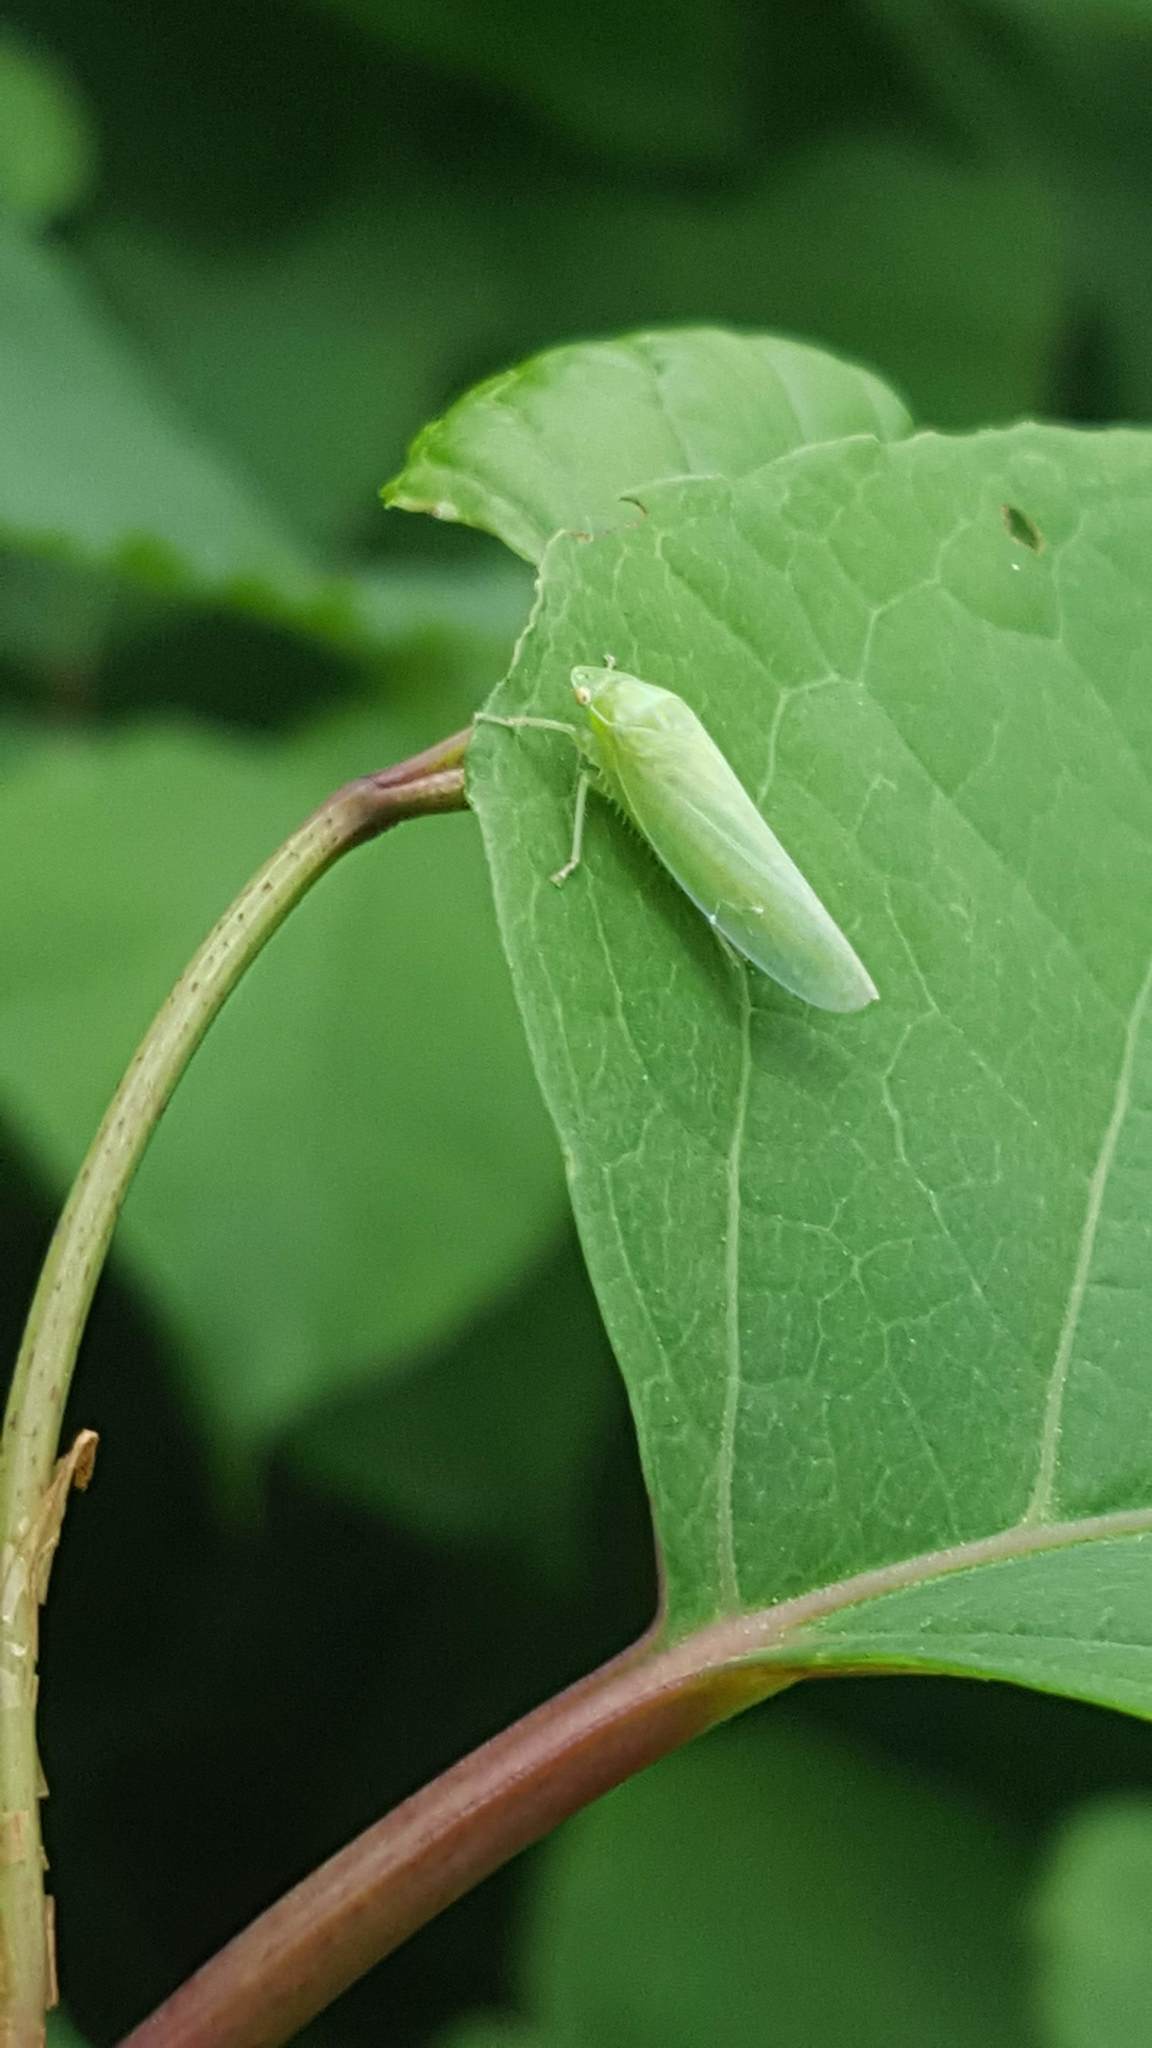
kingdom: Animalia
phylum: Arthropoda
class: Insecta
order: Hemiptera
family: Cicadellidae
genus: Gyponana
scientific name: Gyponana
